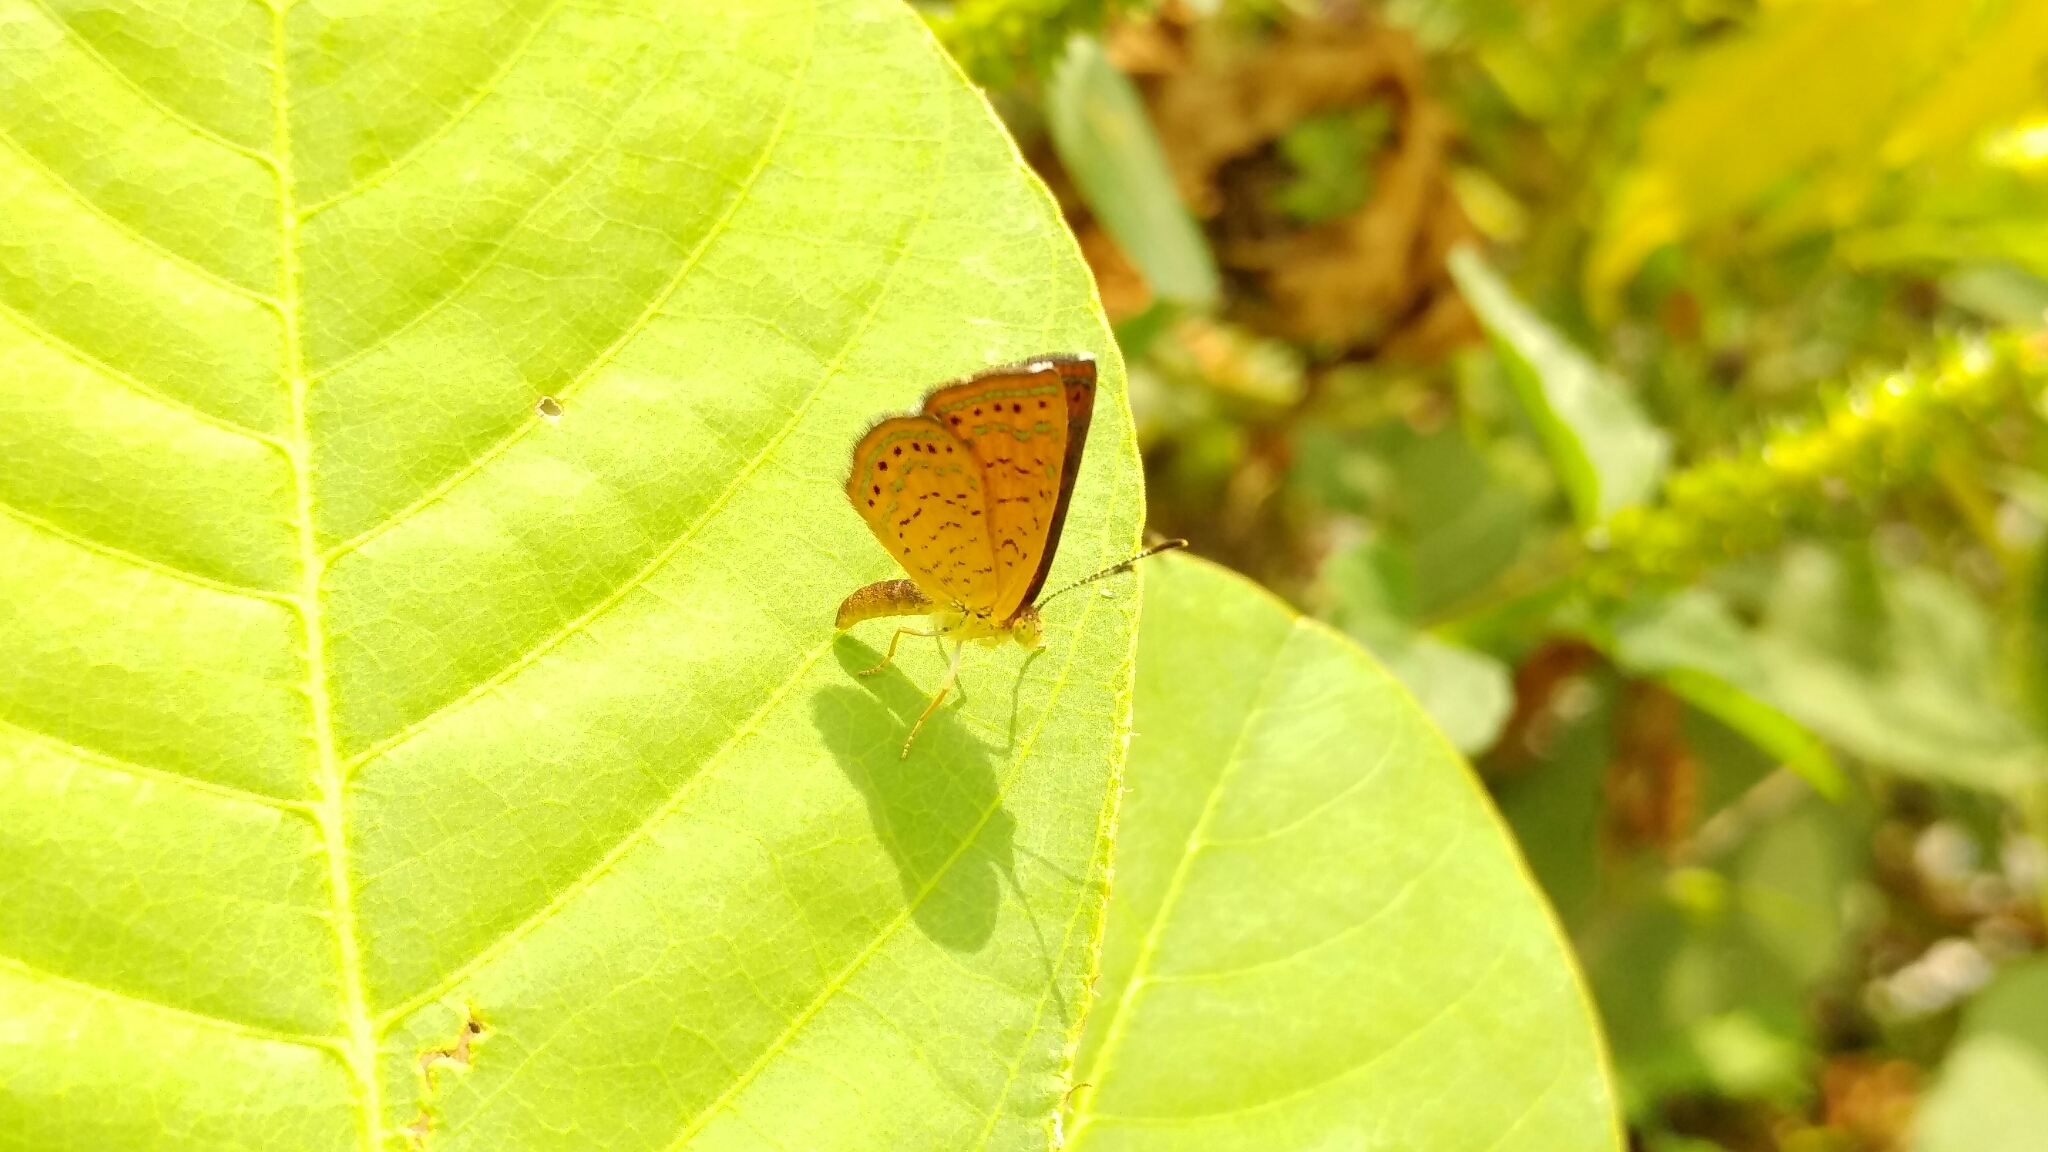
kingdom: Animalia
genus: Calephelis
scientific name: Calephelis perditalis
